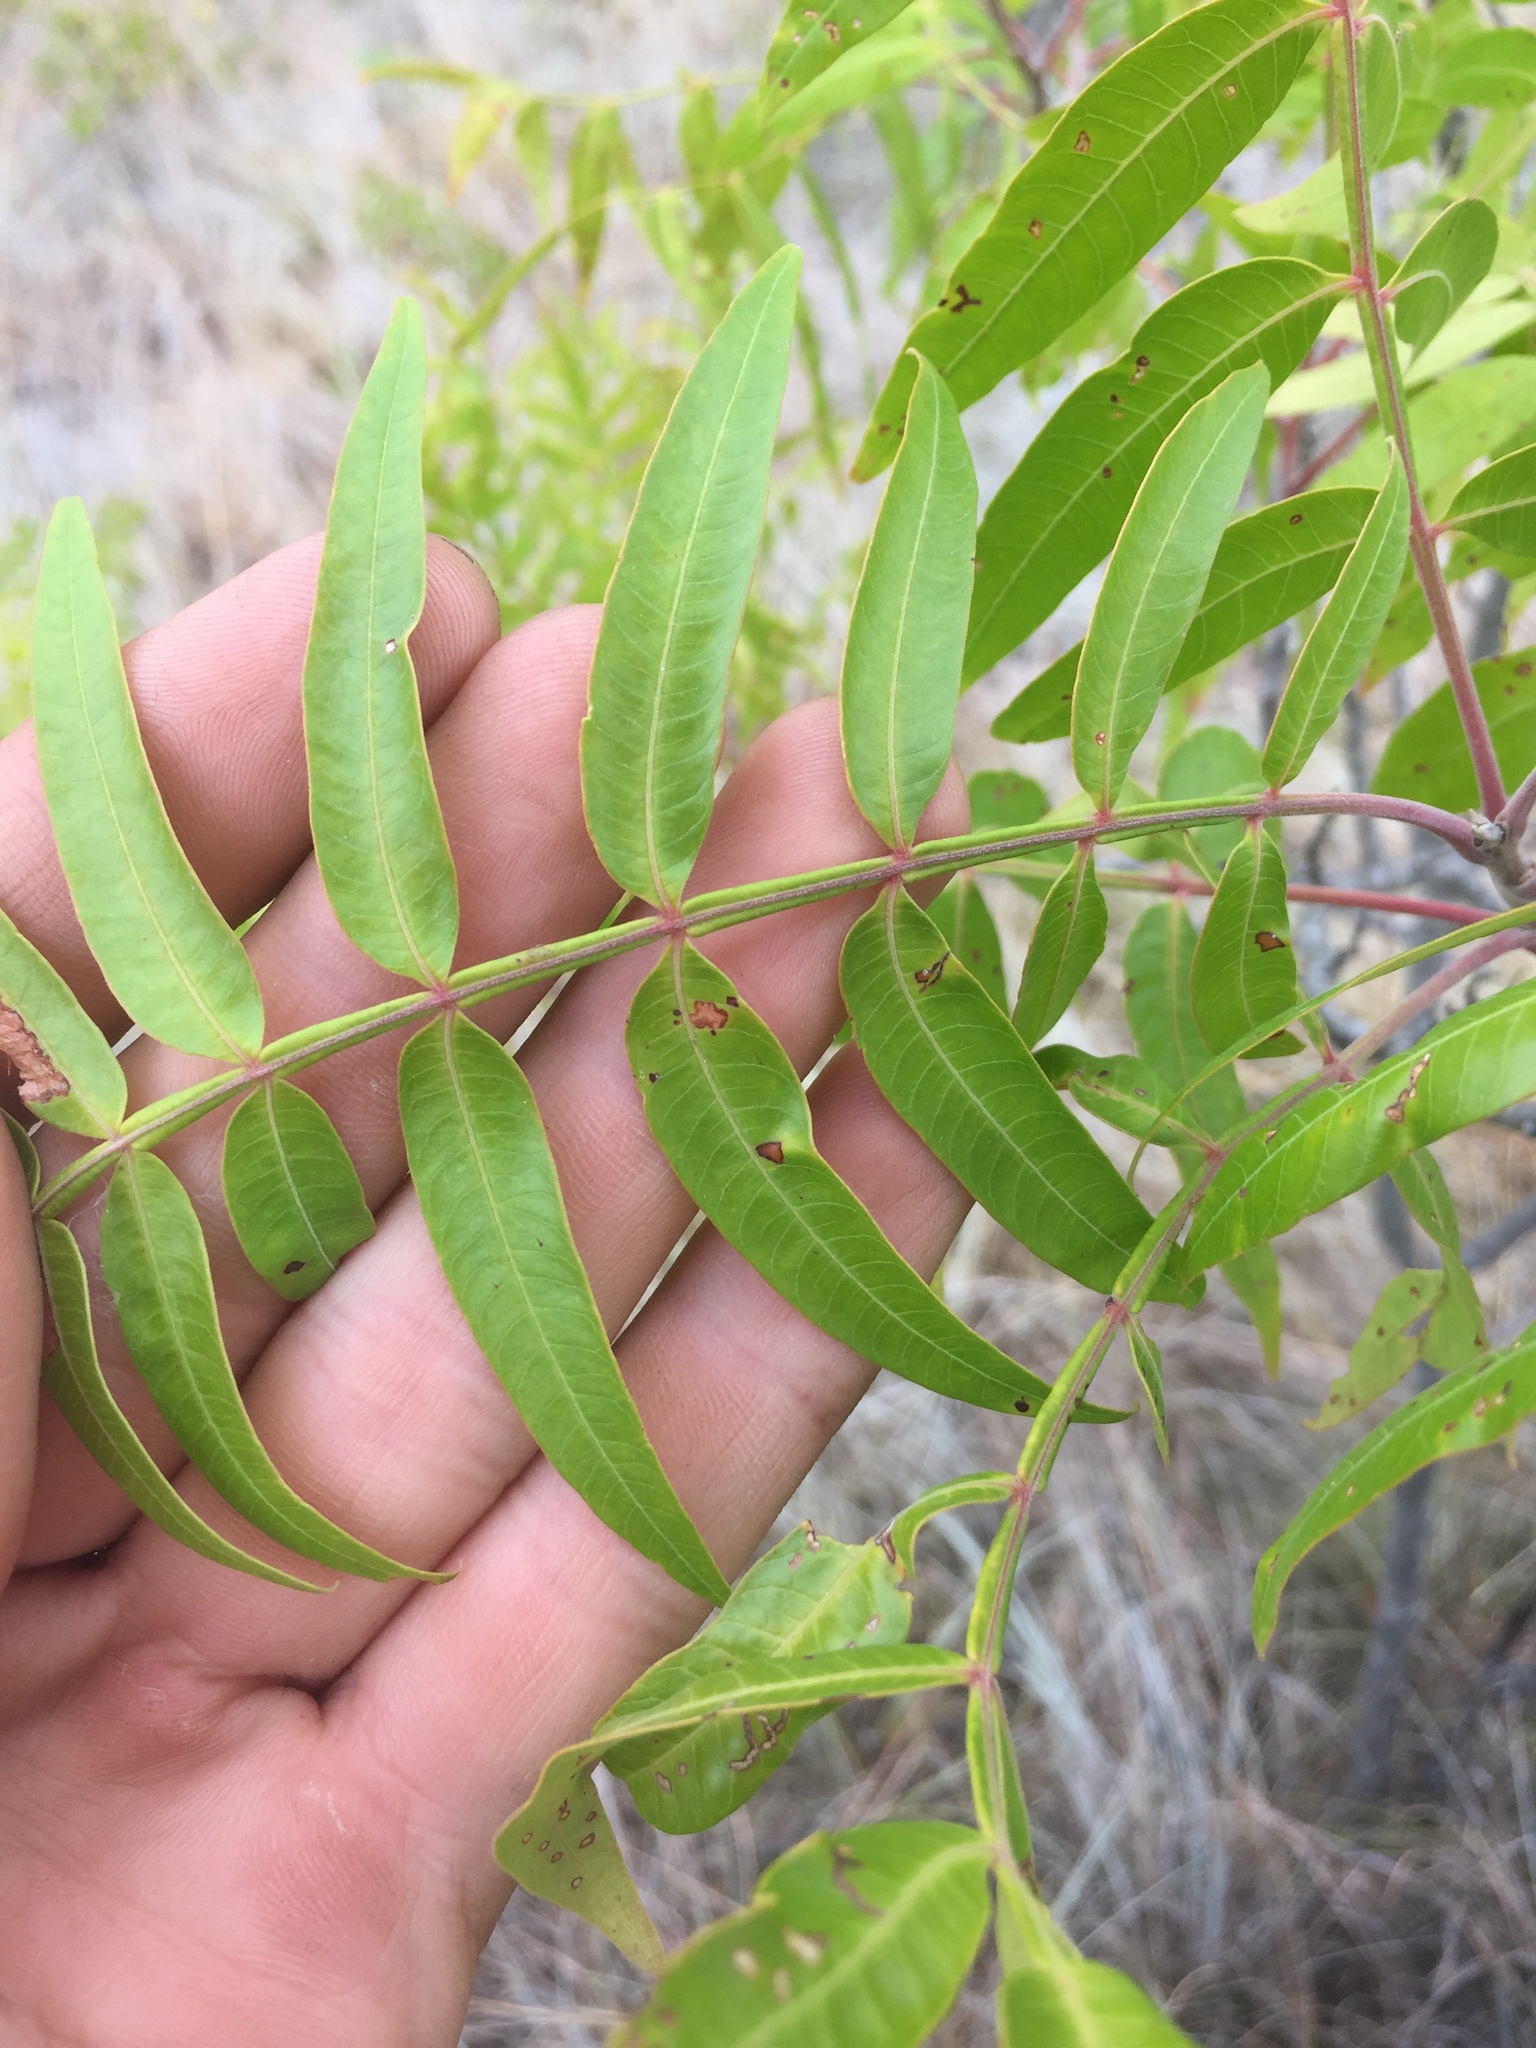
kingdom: Plantae
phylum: Tracheophyta
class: Magnoliopsida
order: Sapindales
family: Anacardiaceae
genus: Rhus
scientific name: Rhus lanceolata
